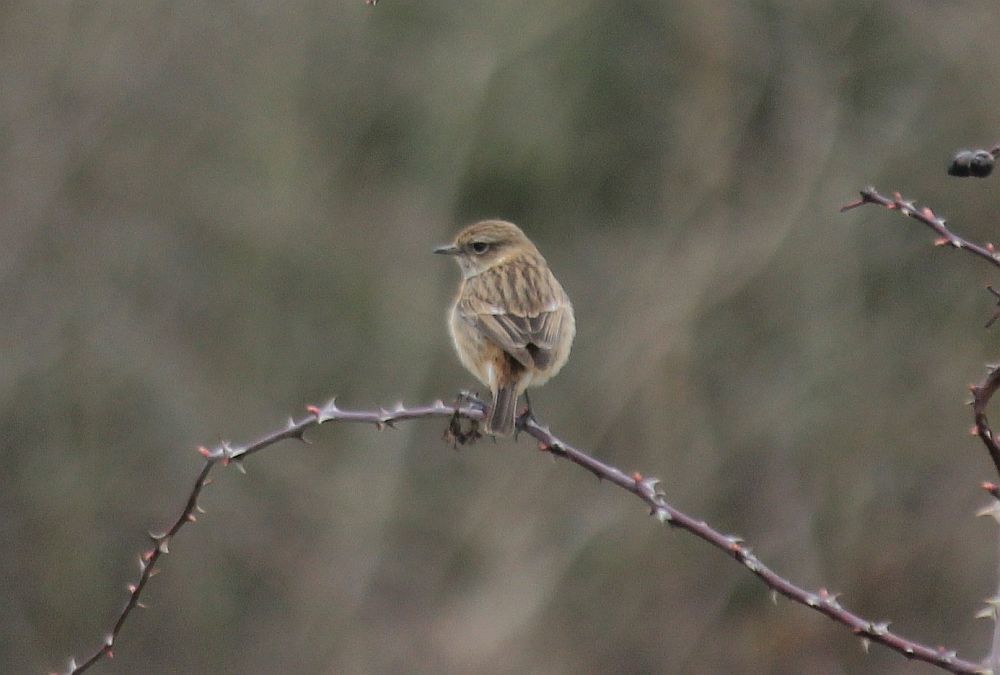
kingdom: Animalia
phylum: Chordata
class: Aves
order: Passeriformes
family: Muscicapidae
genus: Saxicola
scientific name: Saxicola rubicola
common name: European stonechat
